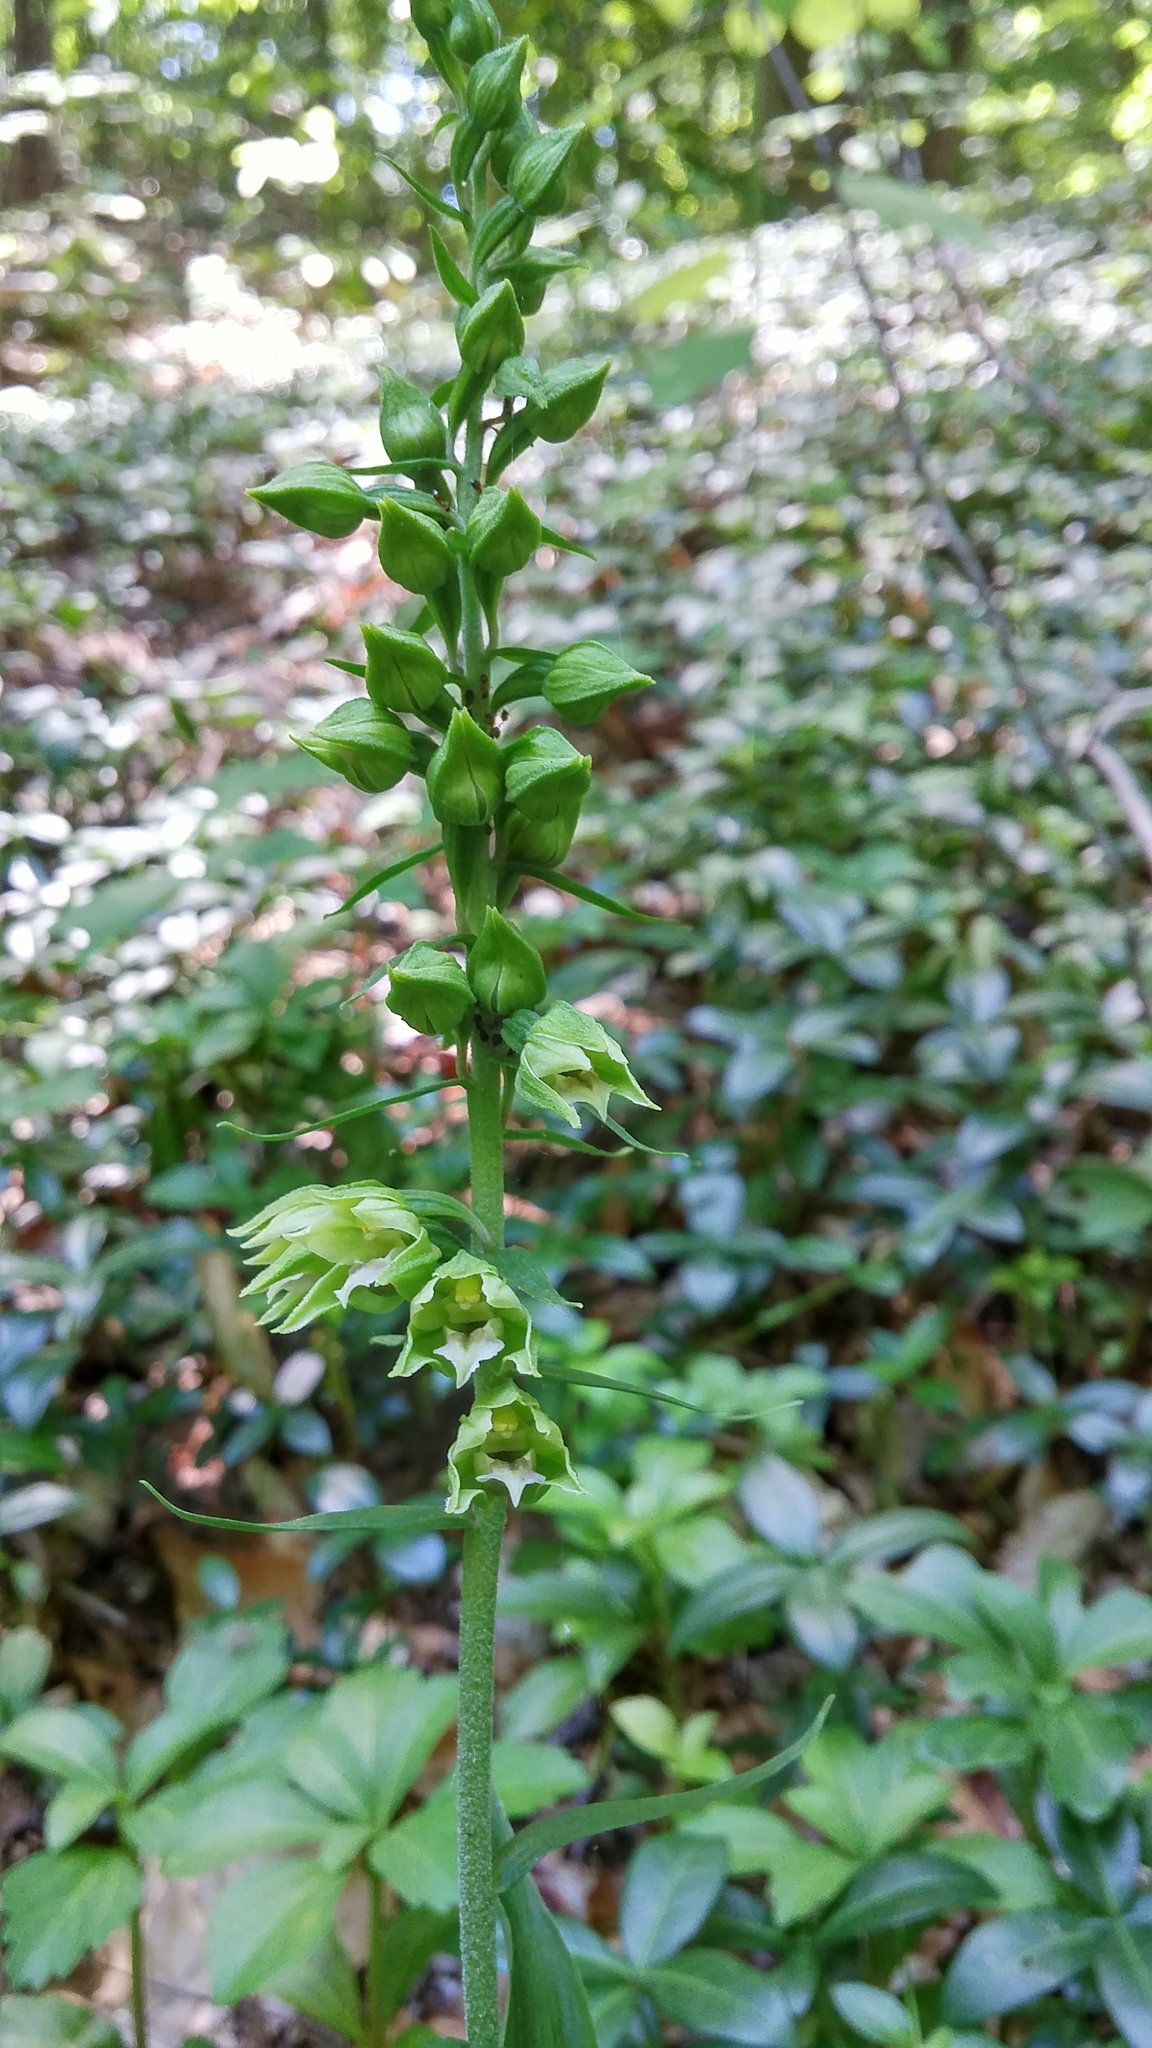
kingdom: Plantae
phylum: Tracheophyta
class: Liliopsida
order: Asparagales
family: Orchidaceae
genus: Epipactis
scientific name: Epipactis helleborine
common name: Broad-leaved helleborine
